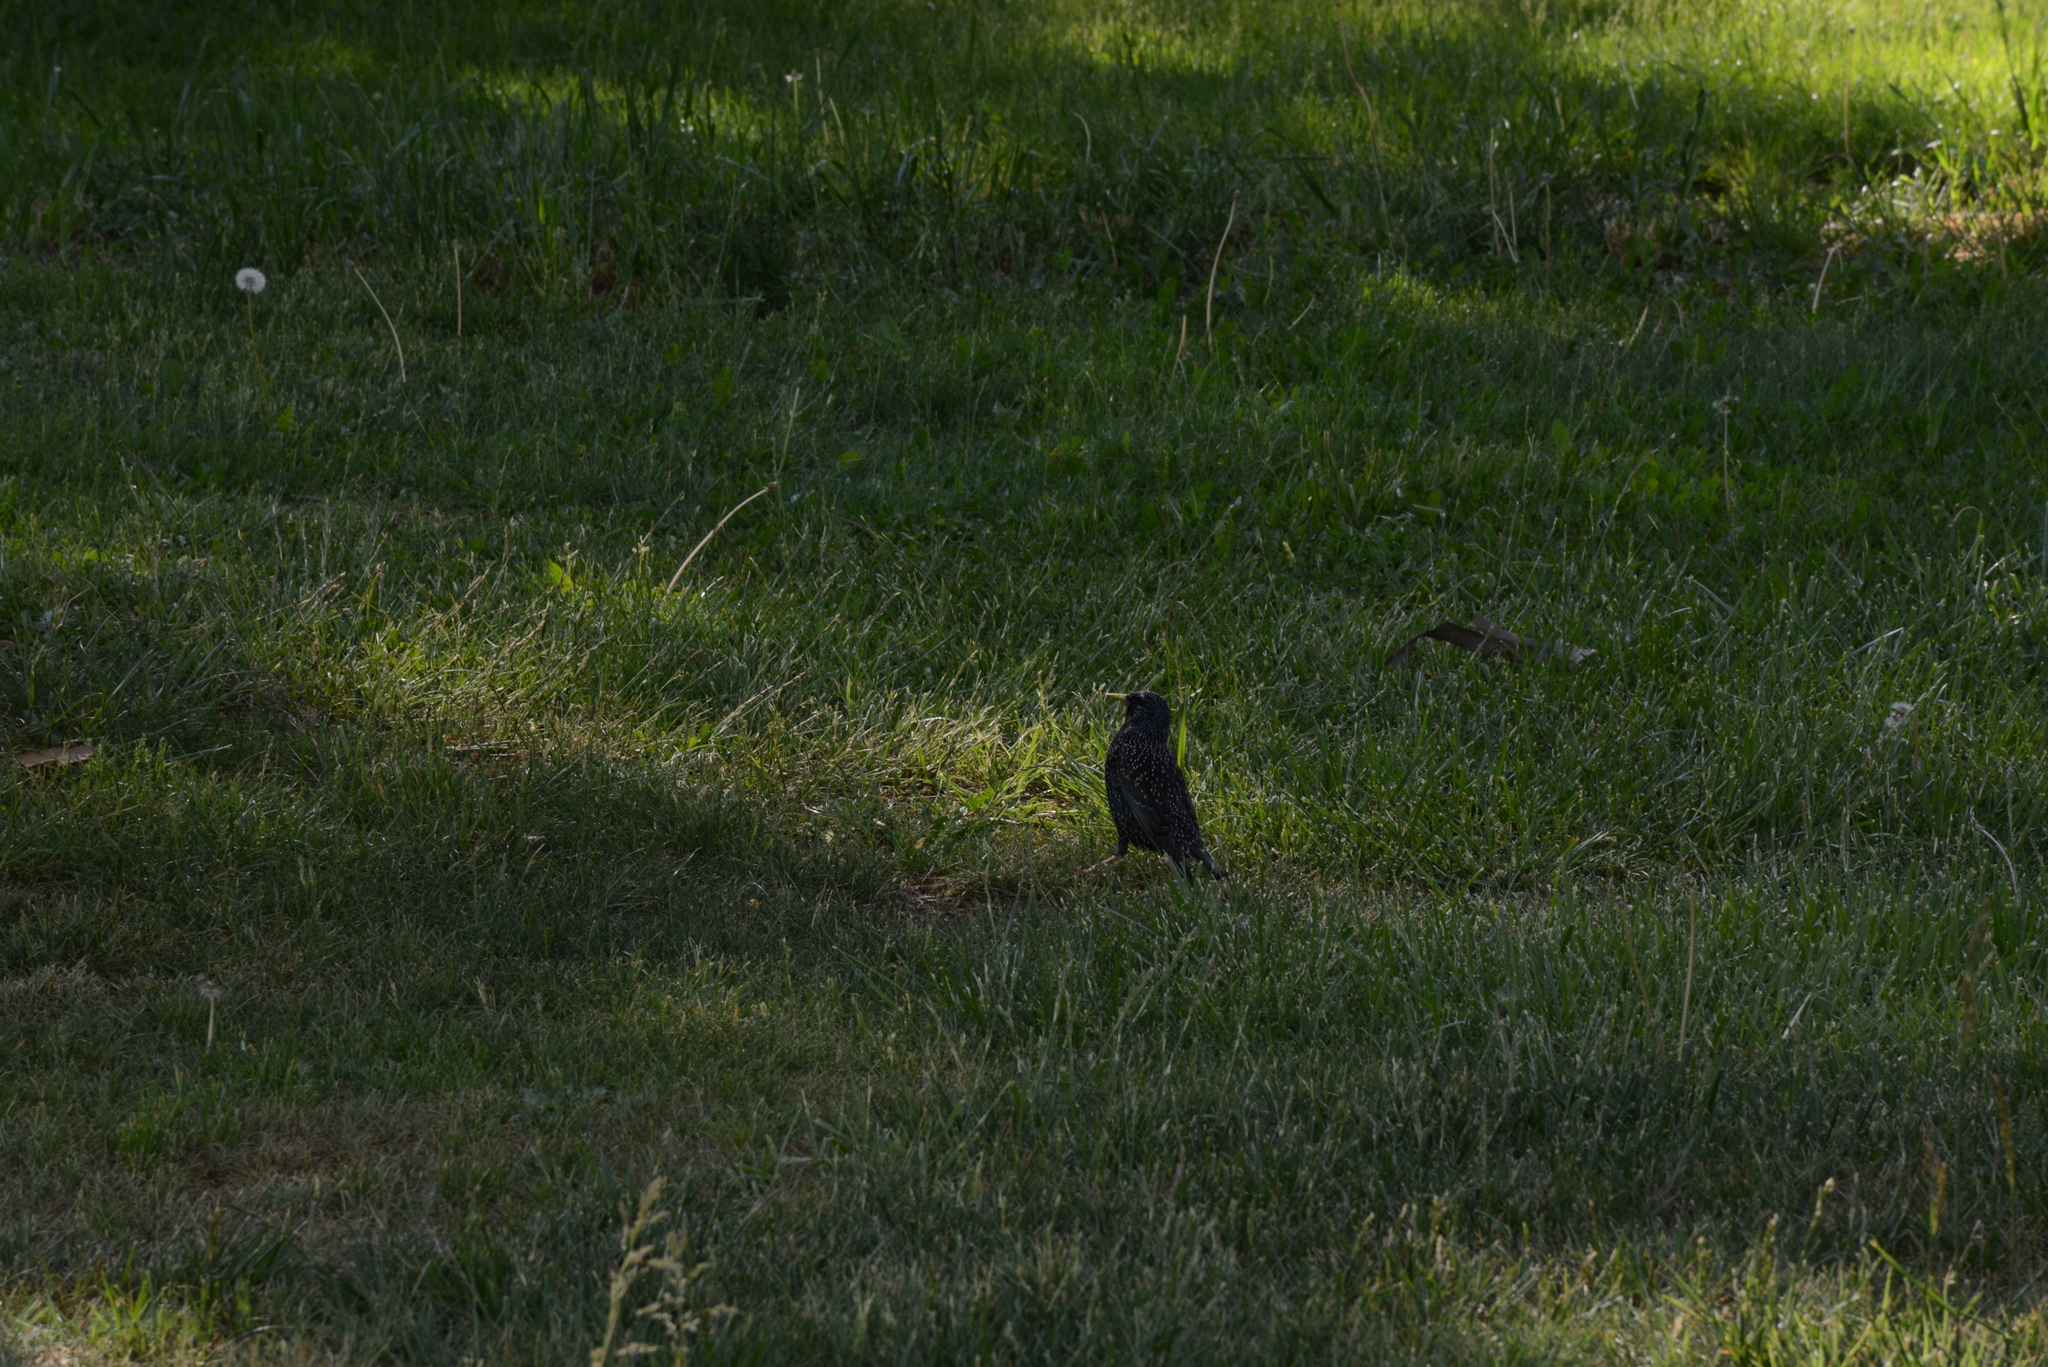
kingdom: Animalia
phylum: Chordata
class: Aves
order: Passeriformes
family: Sturnidae
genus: Sturnus
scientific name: Sturnus vulgaris
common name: Common starling
